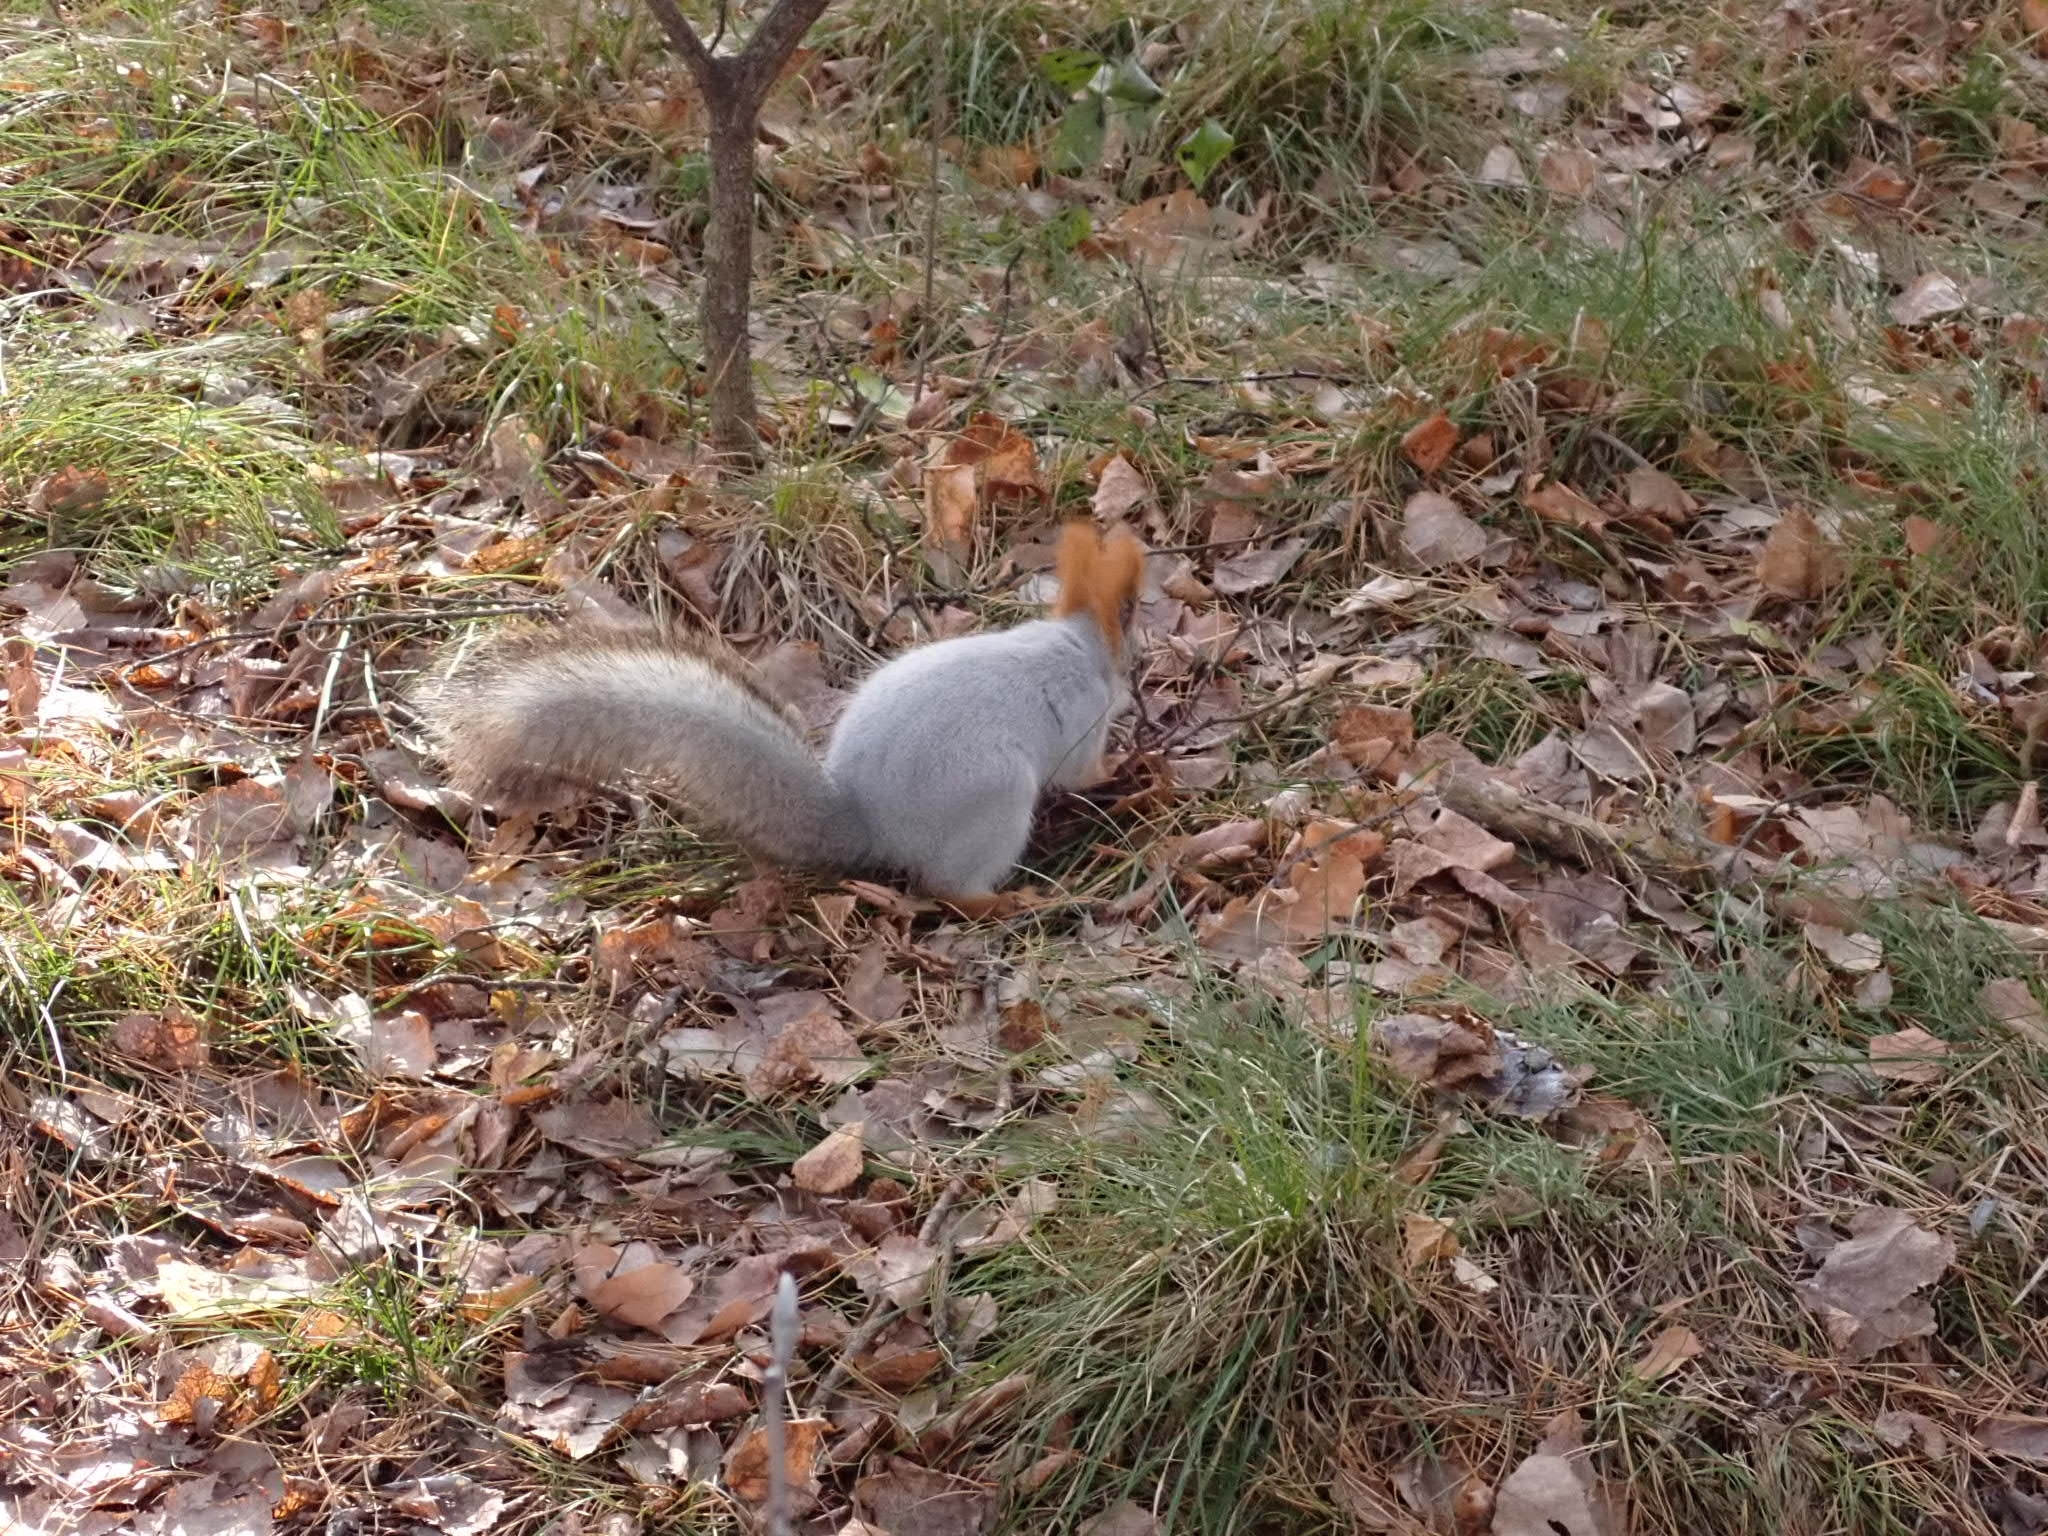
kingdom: Animalia
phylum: Chordata
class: Mammalia
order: Rodentia
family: Sciuridae
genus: Sciurus
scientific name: Sciurus vulgaris
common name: Eurasian red squirrel
